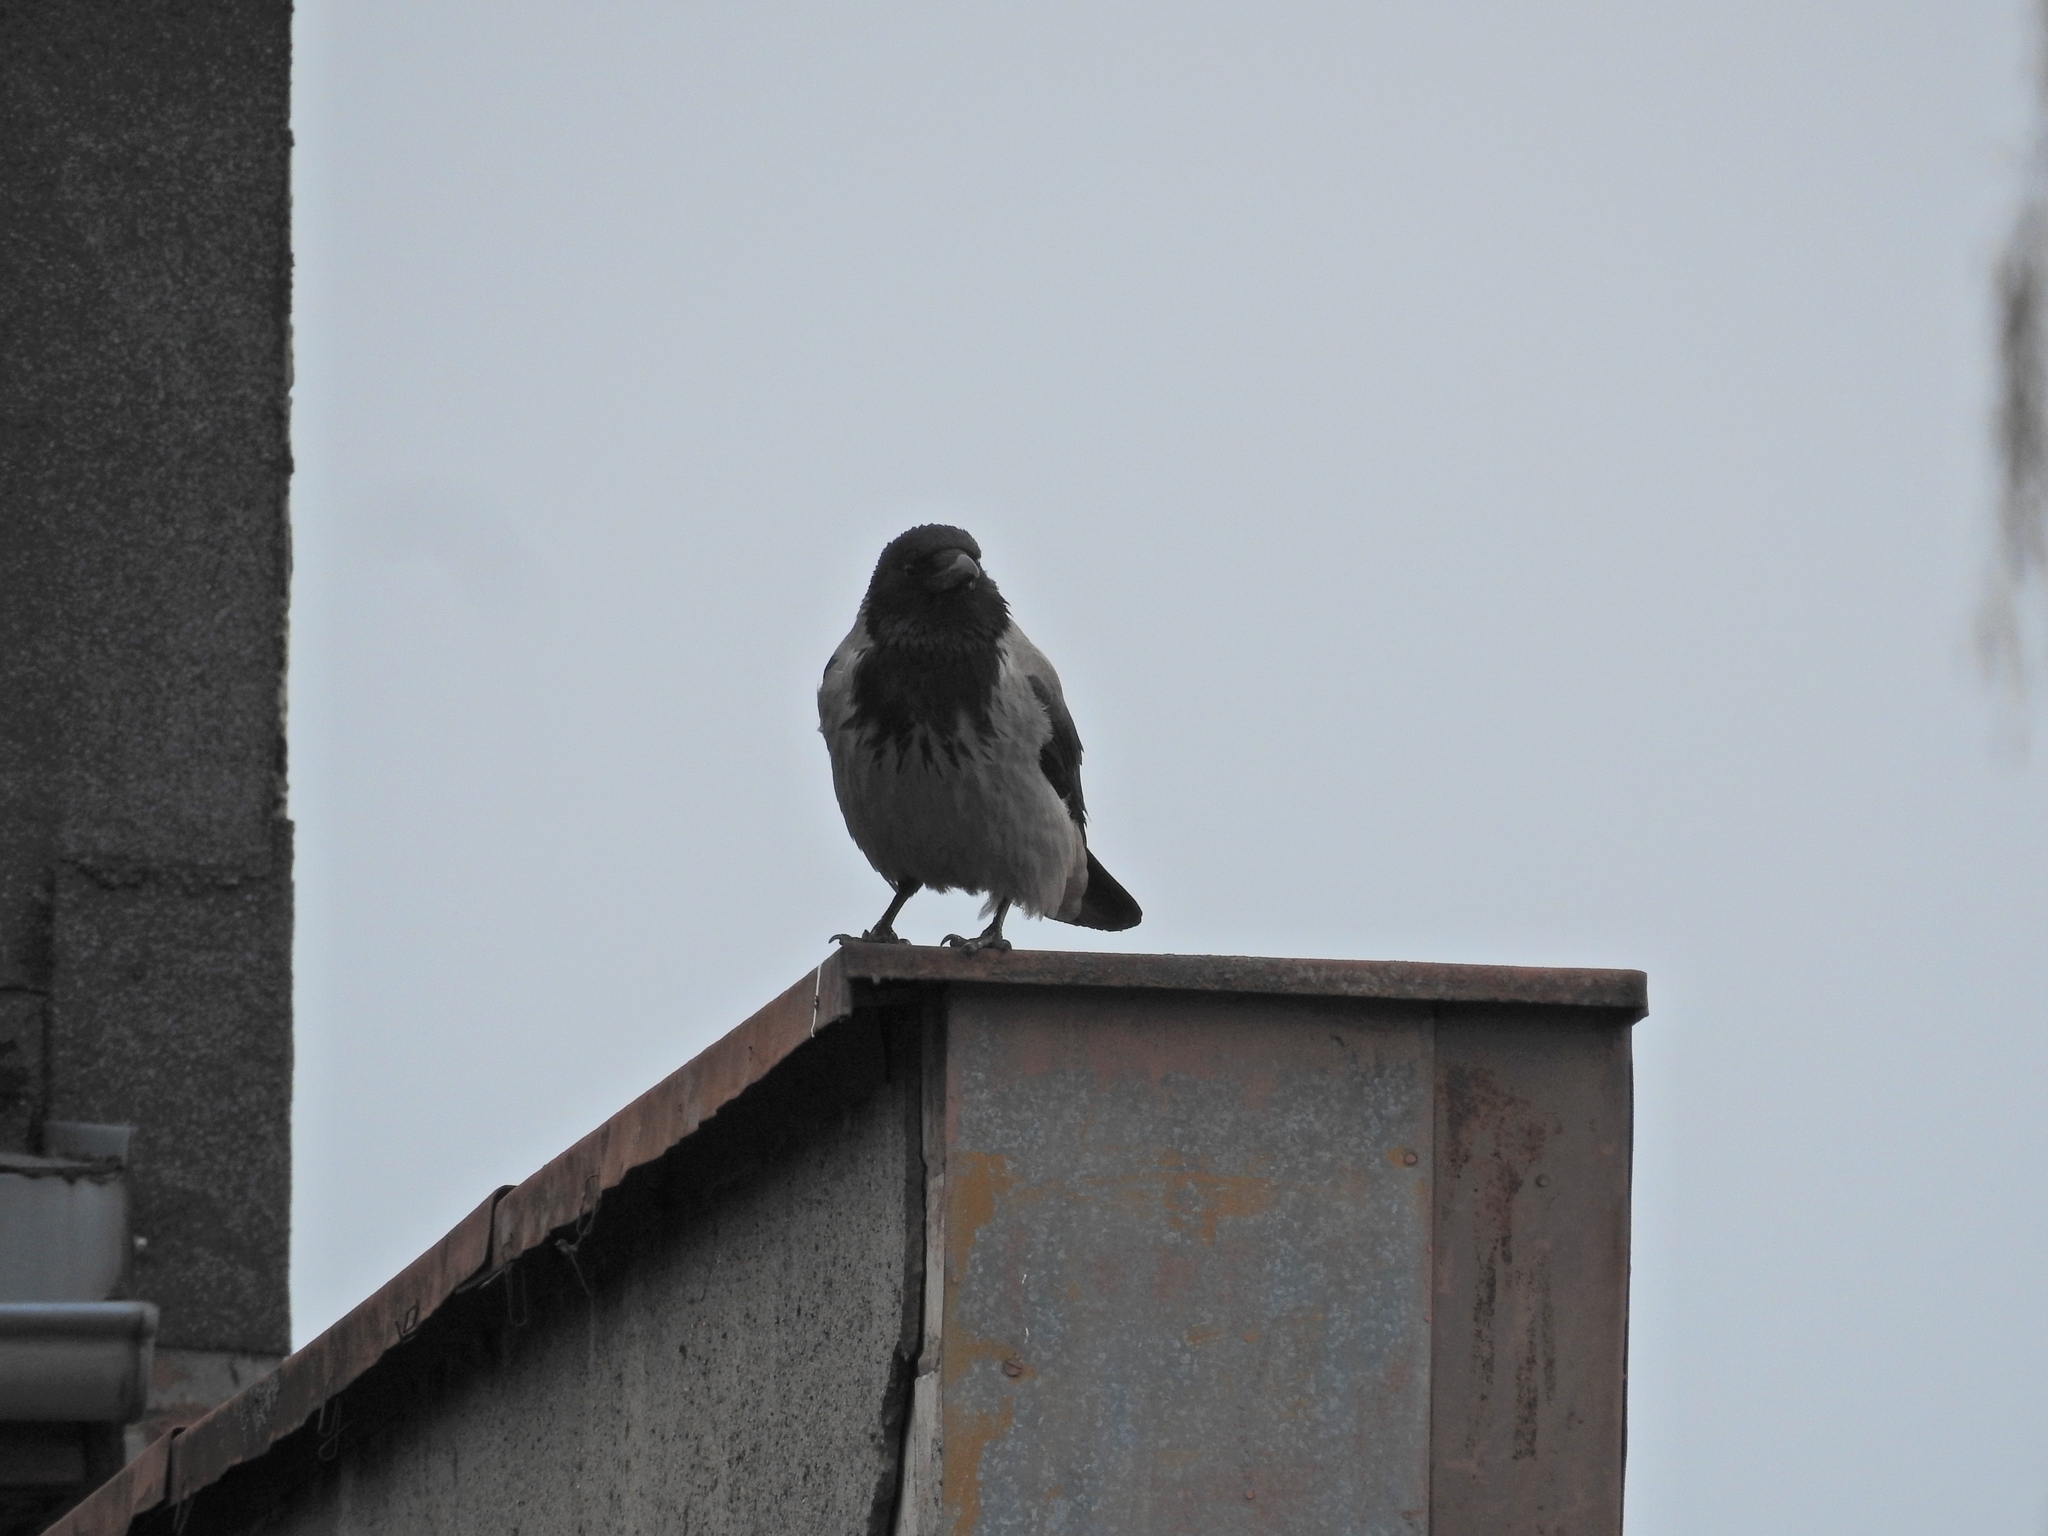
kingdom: Animalia
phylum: Chordata
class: Aves
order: Passeriformes
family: Corvidae
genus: Corvus
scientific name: Corvus cornix
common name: Hooded crow
